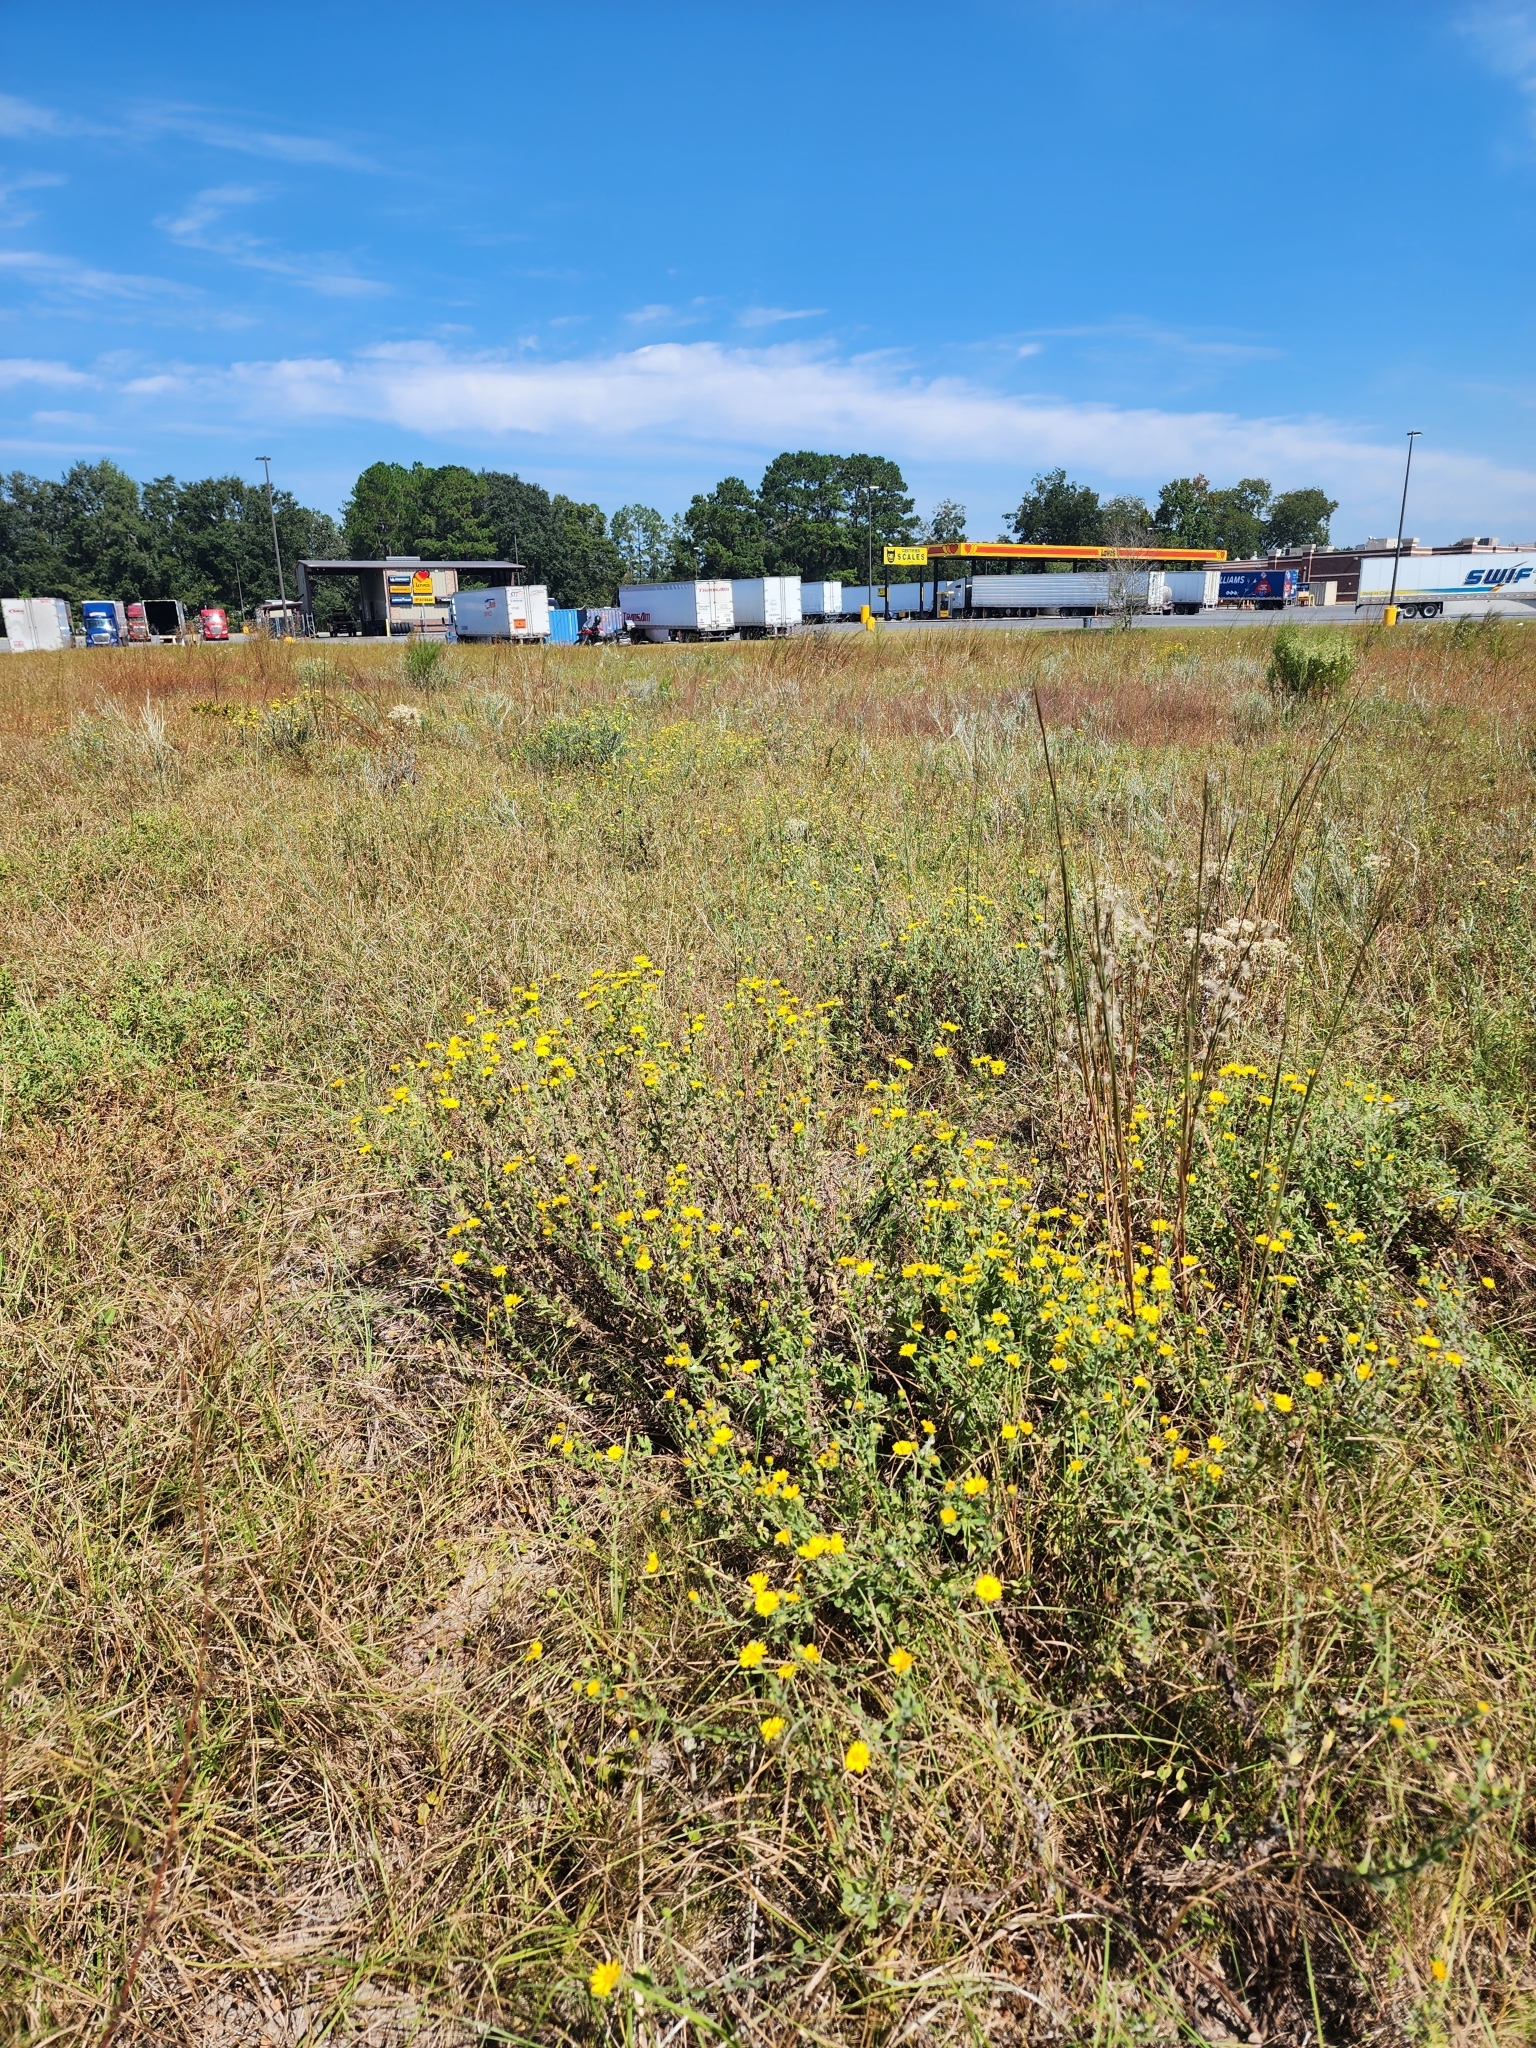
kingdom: Plantae
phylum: Tracheophyta
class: Magnoliopsida
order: Asterales
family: Asteraceae
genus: Chrysopsis
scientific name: Chrysopsis gossypina
